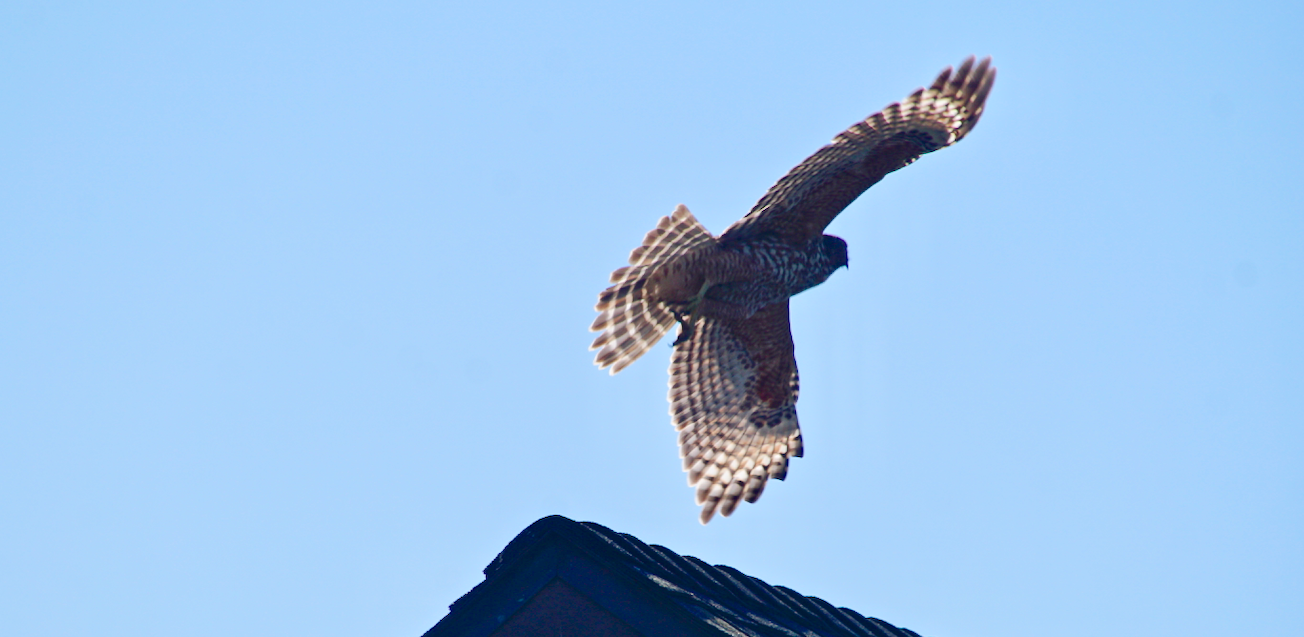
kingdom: Animalia
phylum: Chordata
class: Aves
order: Accipitriformes
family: Accipitridae
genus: Buteo
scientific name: Buteo lineatus
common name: Red-shouldered hawk
